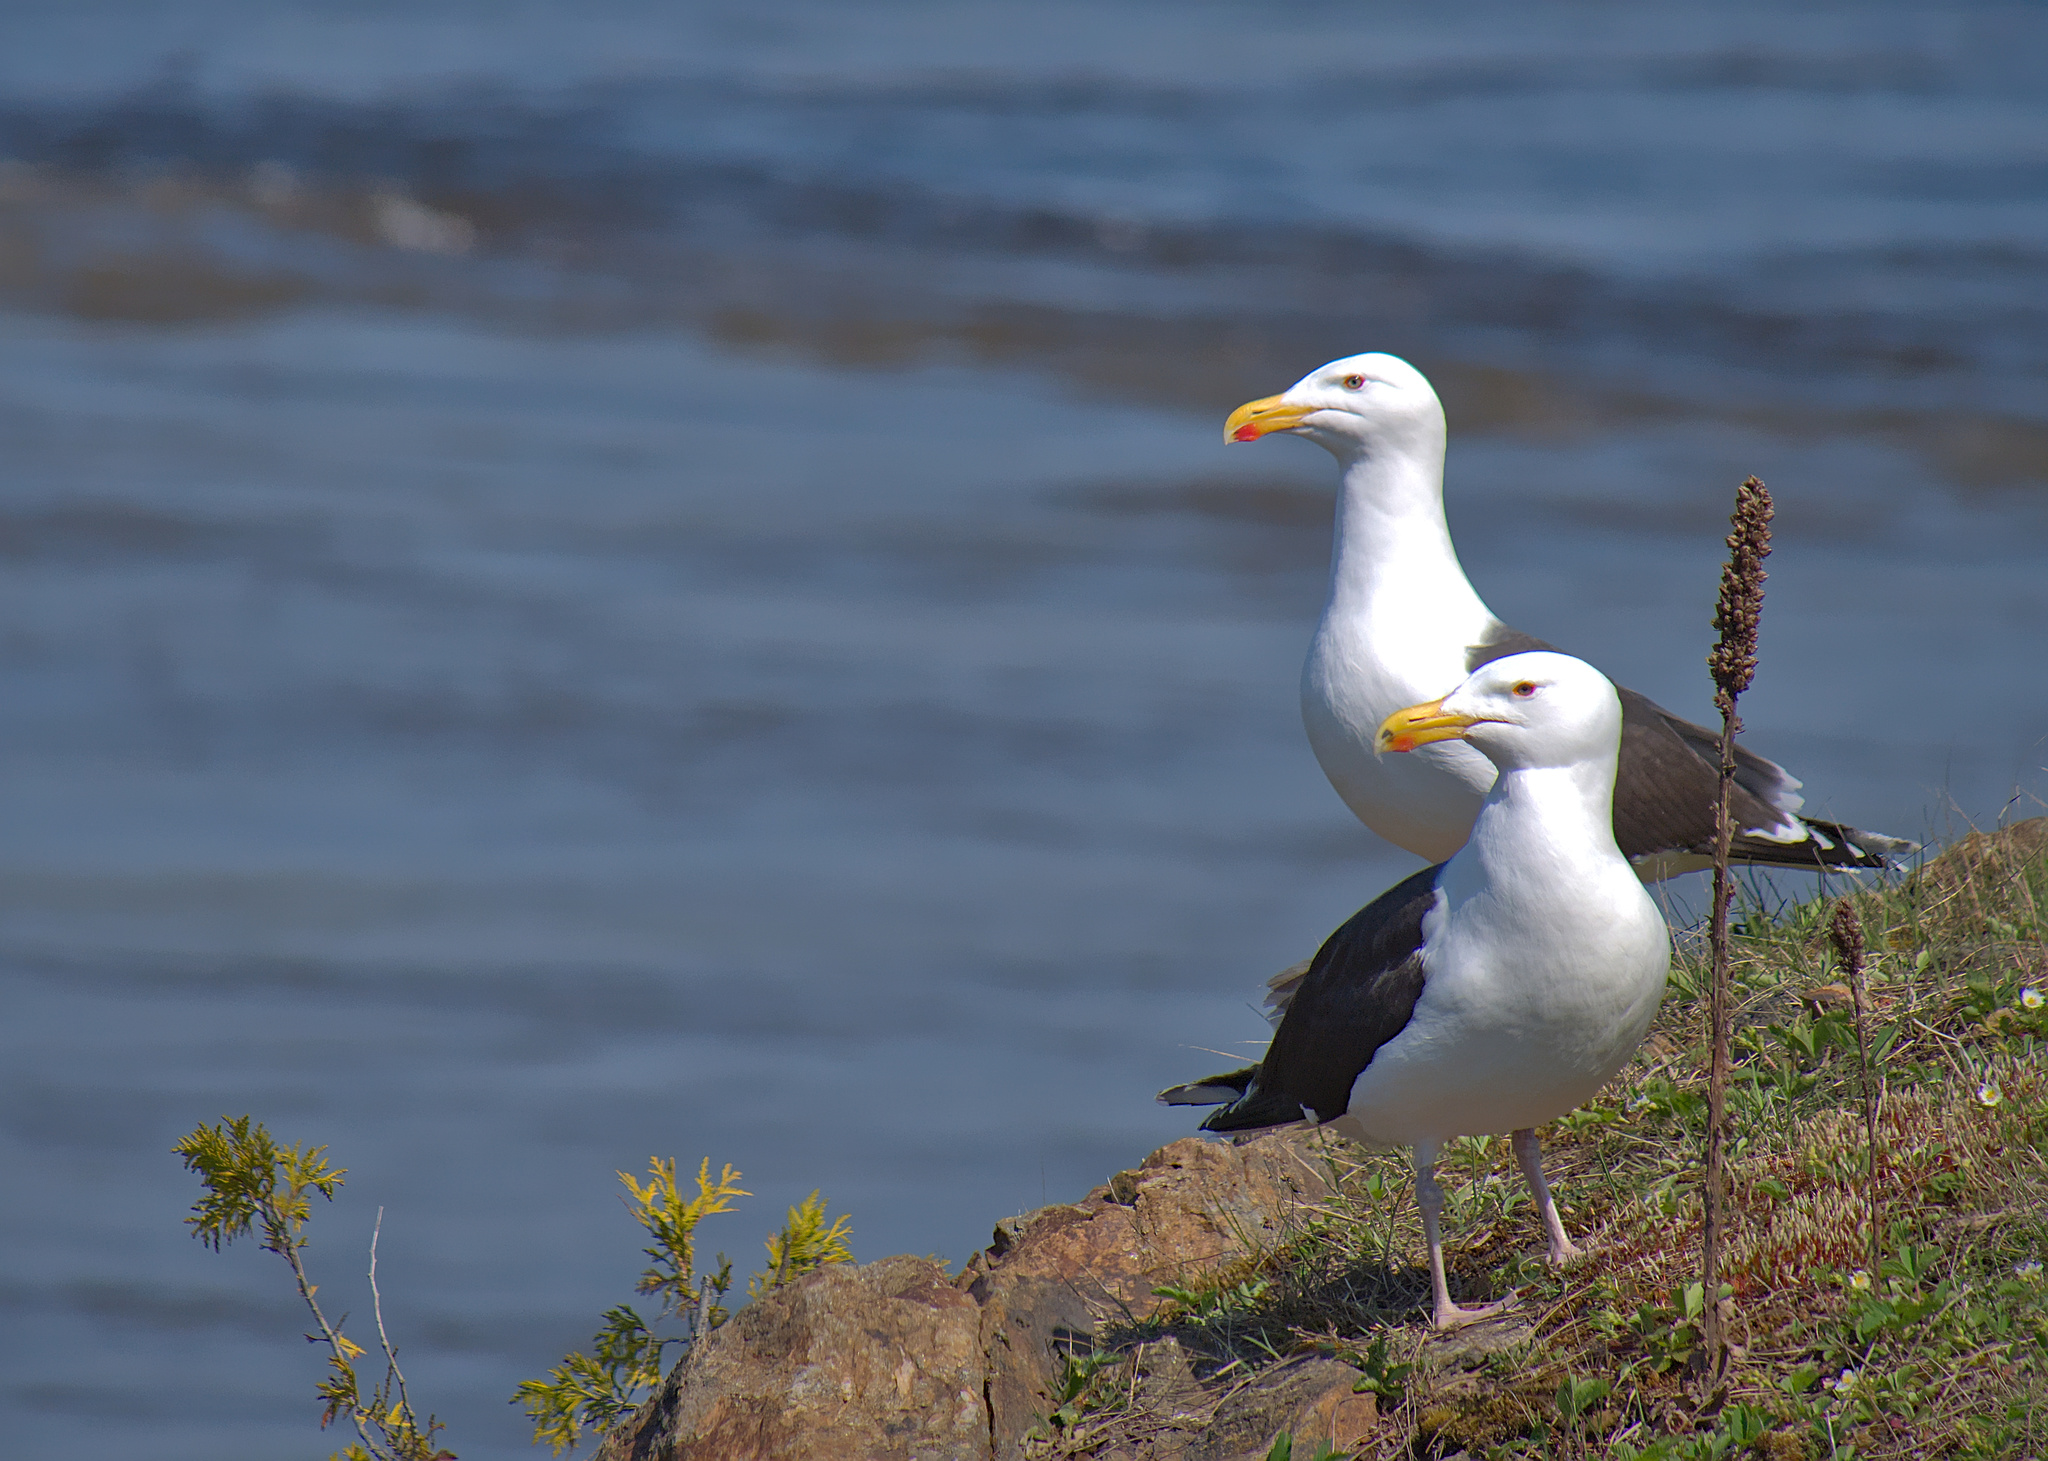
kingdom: Animalia
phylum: Chordata
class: Aves
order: Charadriiformes
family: Laridae
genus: Larus
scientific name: Larus marinus
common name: Great black-backed gull
